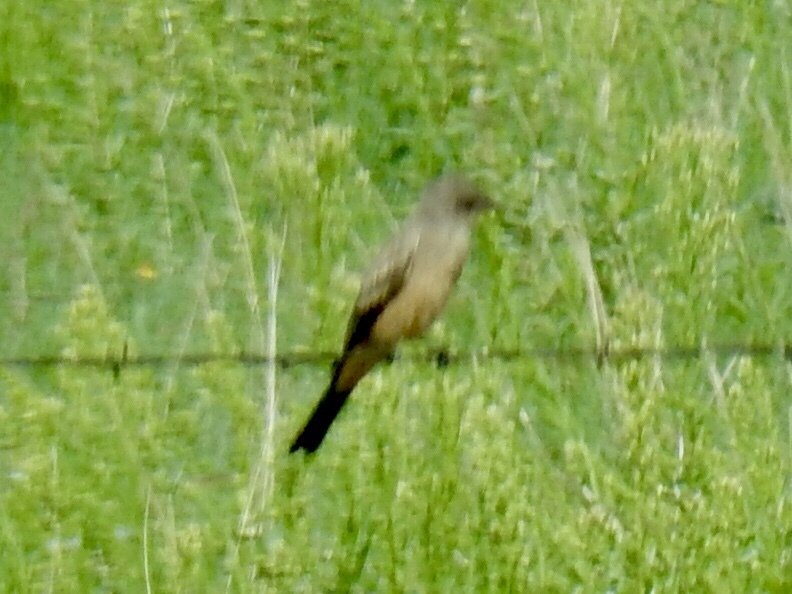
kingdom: Animalia
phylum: Chordata
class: Aves
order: Passeriformes
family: Tyrannidae
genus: Sayornis
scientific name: Sayornis saya
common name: Say's phoebe
